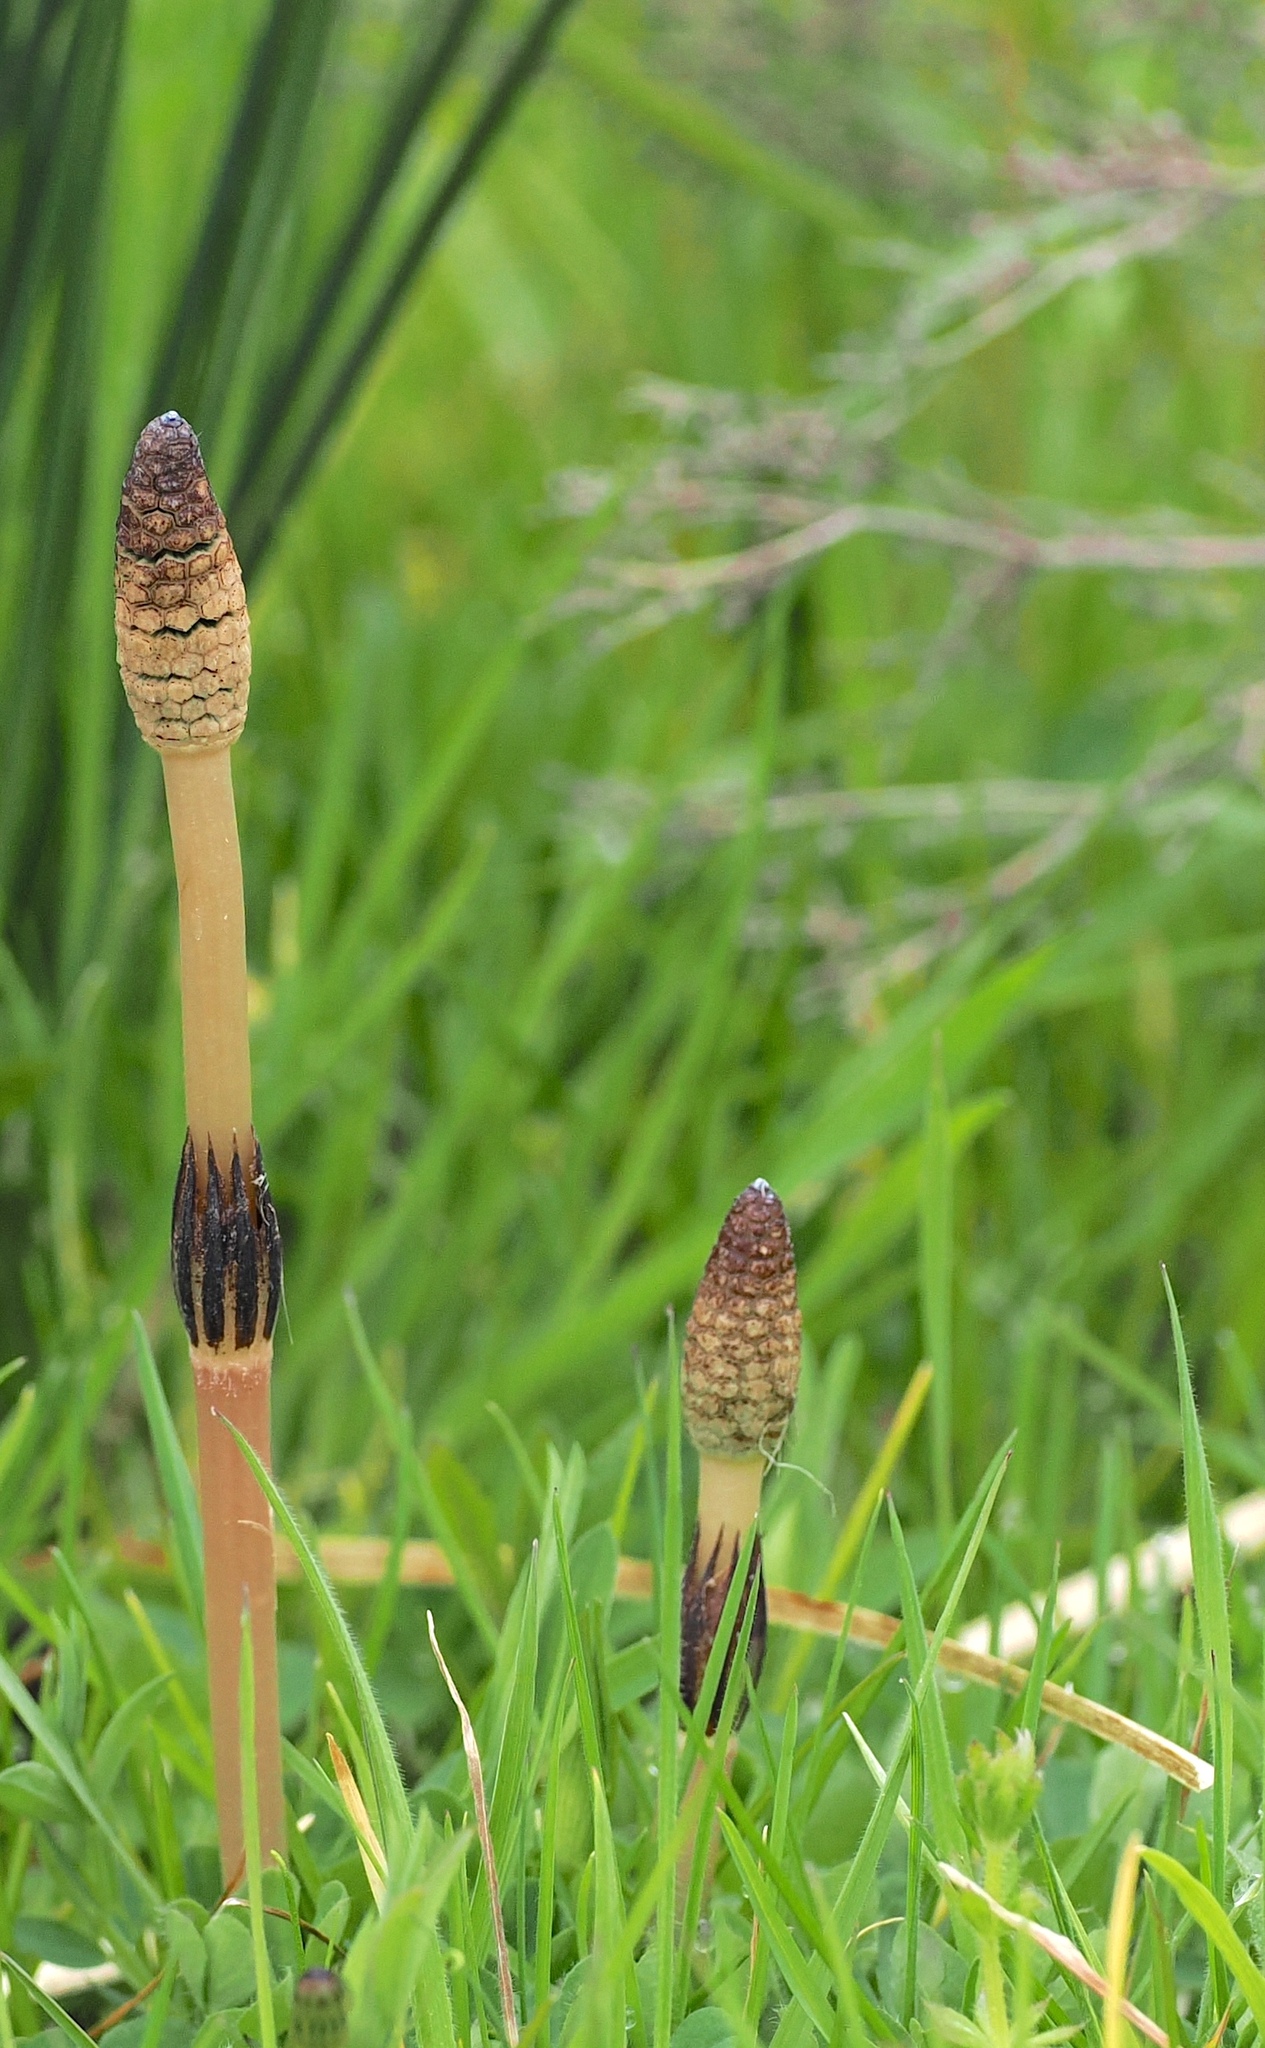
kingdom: Plantae
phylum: Tracheophyta
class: Polypodiopsida
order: Equisetales
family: Equisetaceae
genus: Equisetum
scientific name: Equisetum arvense
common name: Field horsetail
